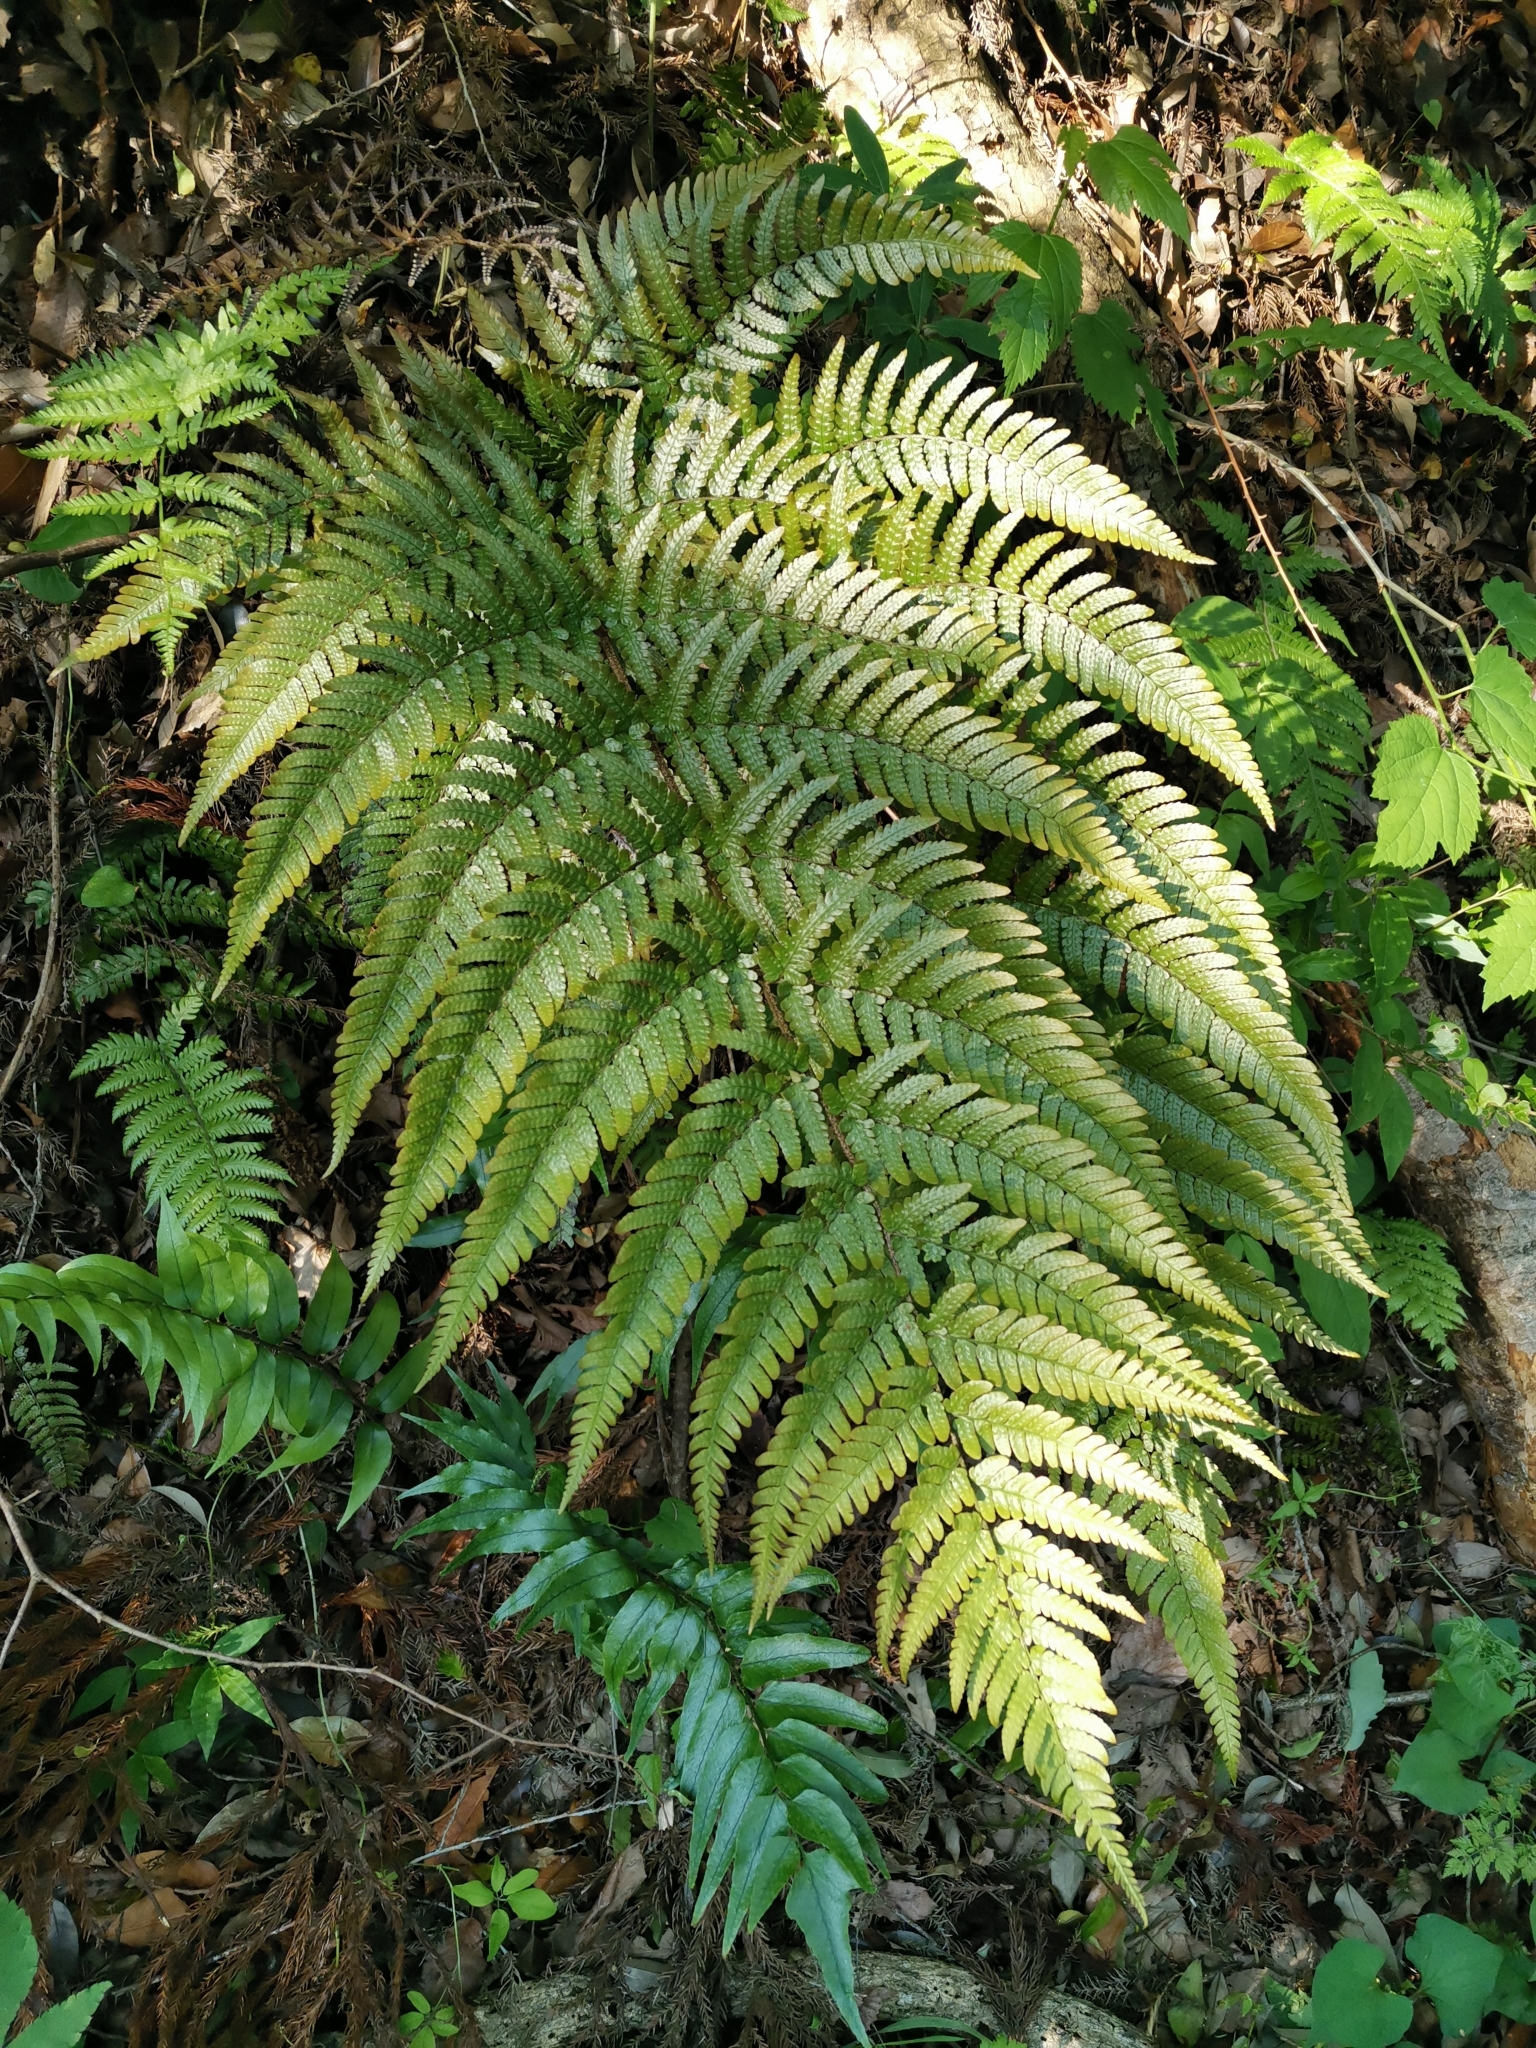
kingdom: Plantae
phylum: Tracheophyta
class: Polypodiopsida
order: Polypodiales
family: Dryopteridaceae
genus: Dryopteris
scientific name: Dryopteris erythrovaria
